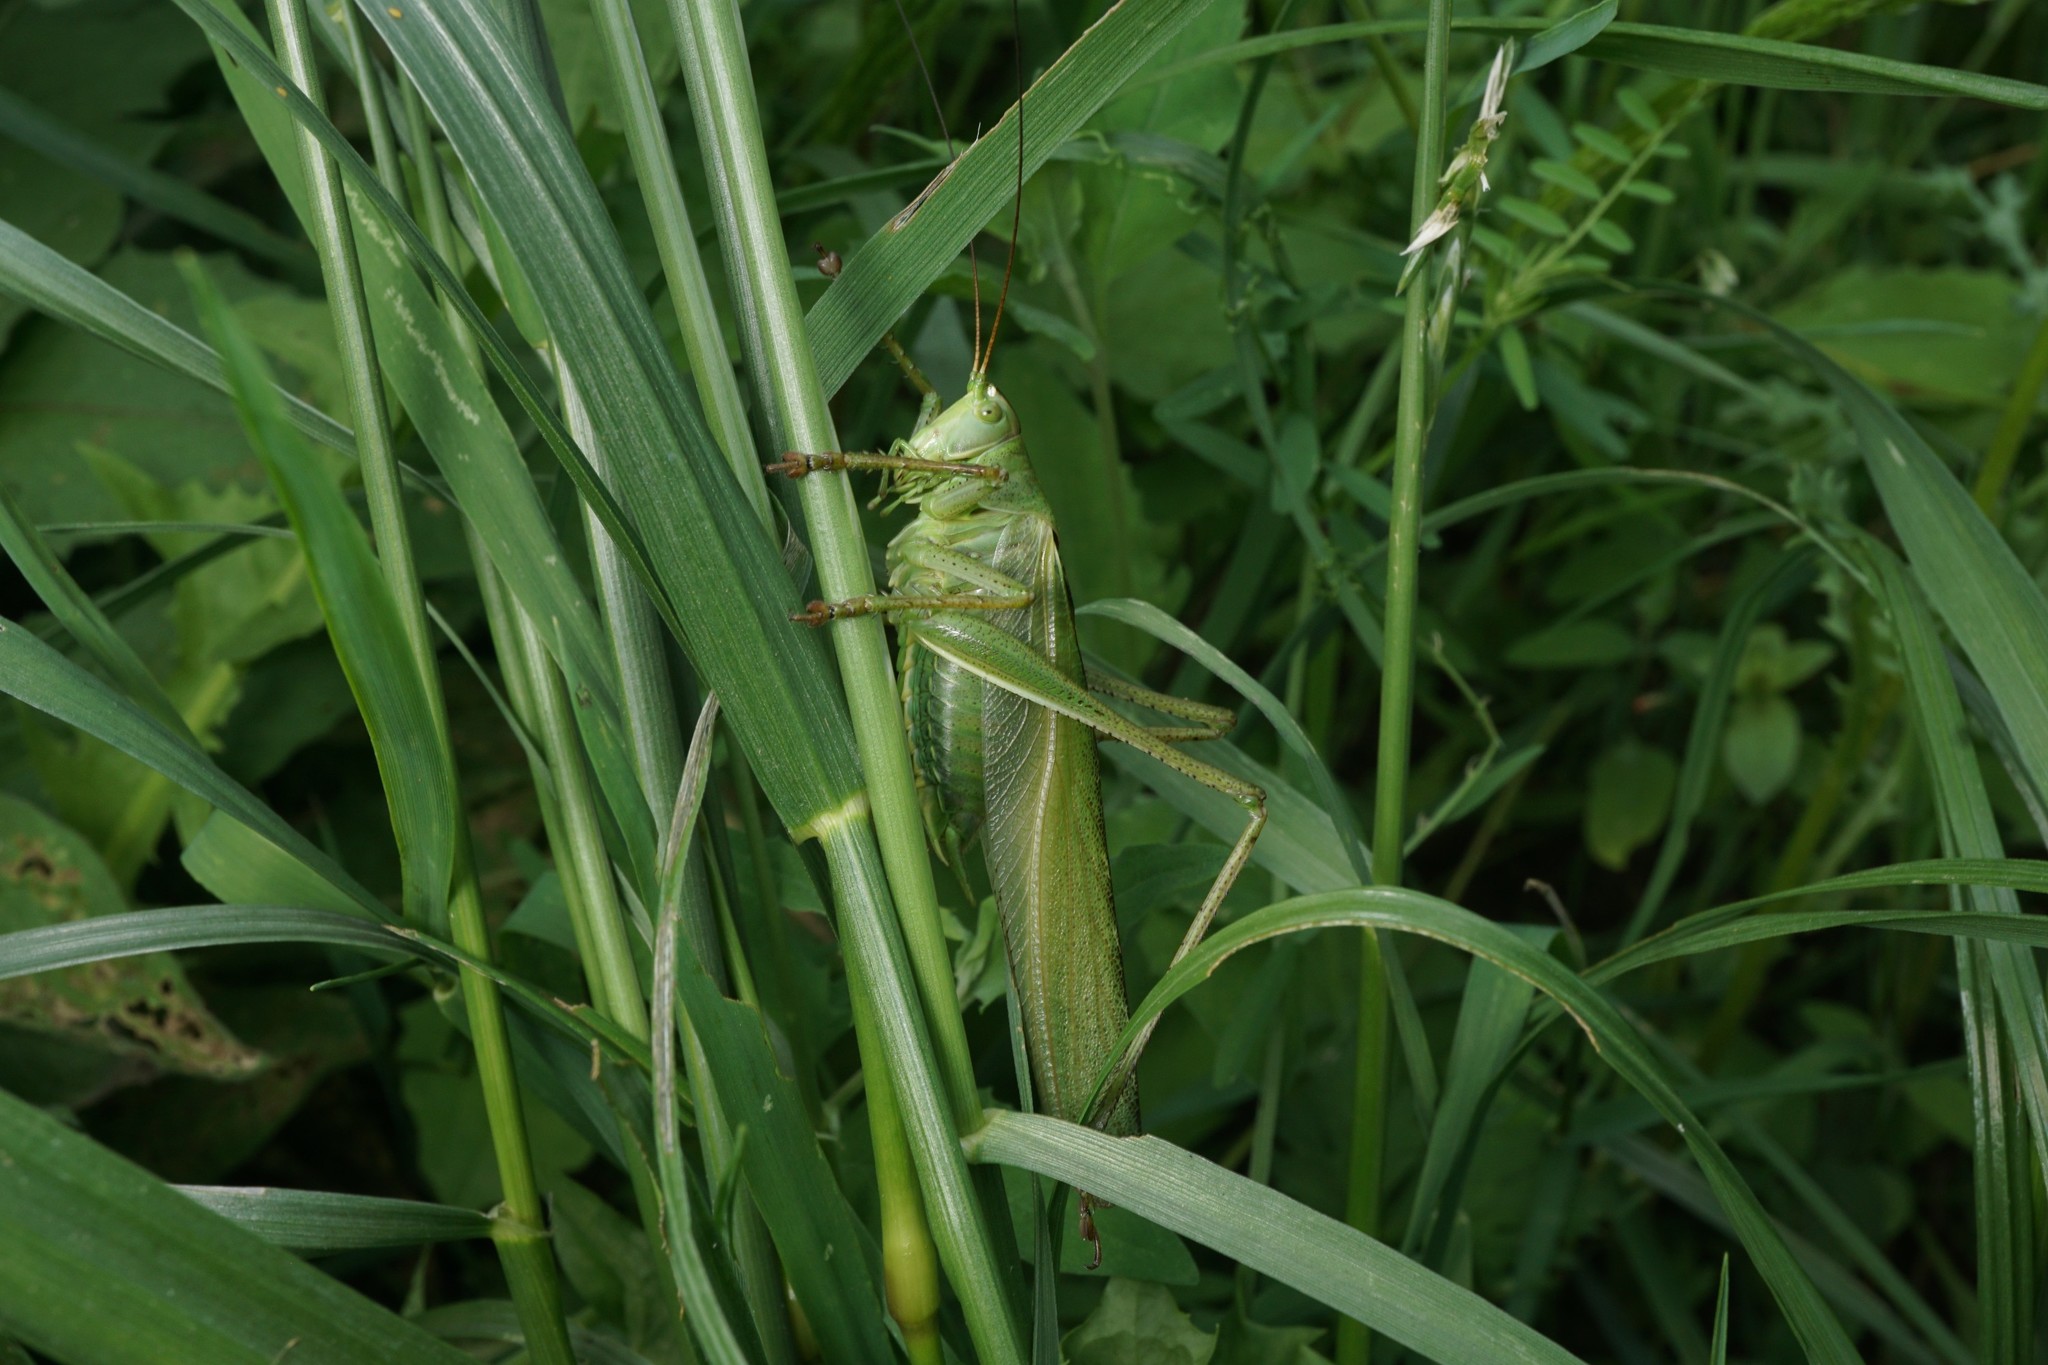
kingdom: Animalia
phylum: Arthropoda
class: Insecta
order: Orthoptera
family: Tettigoniidae
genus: Tettigonia
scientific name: Tettigonia viridissima
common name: Great green bush-cricket
